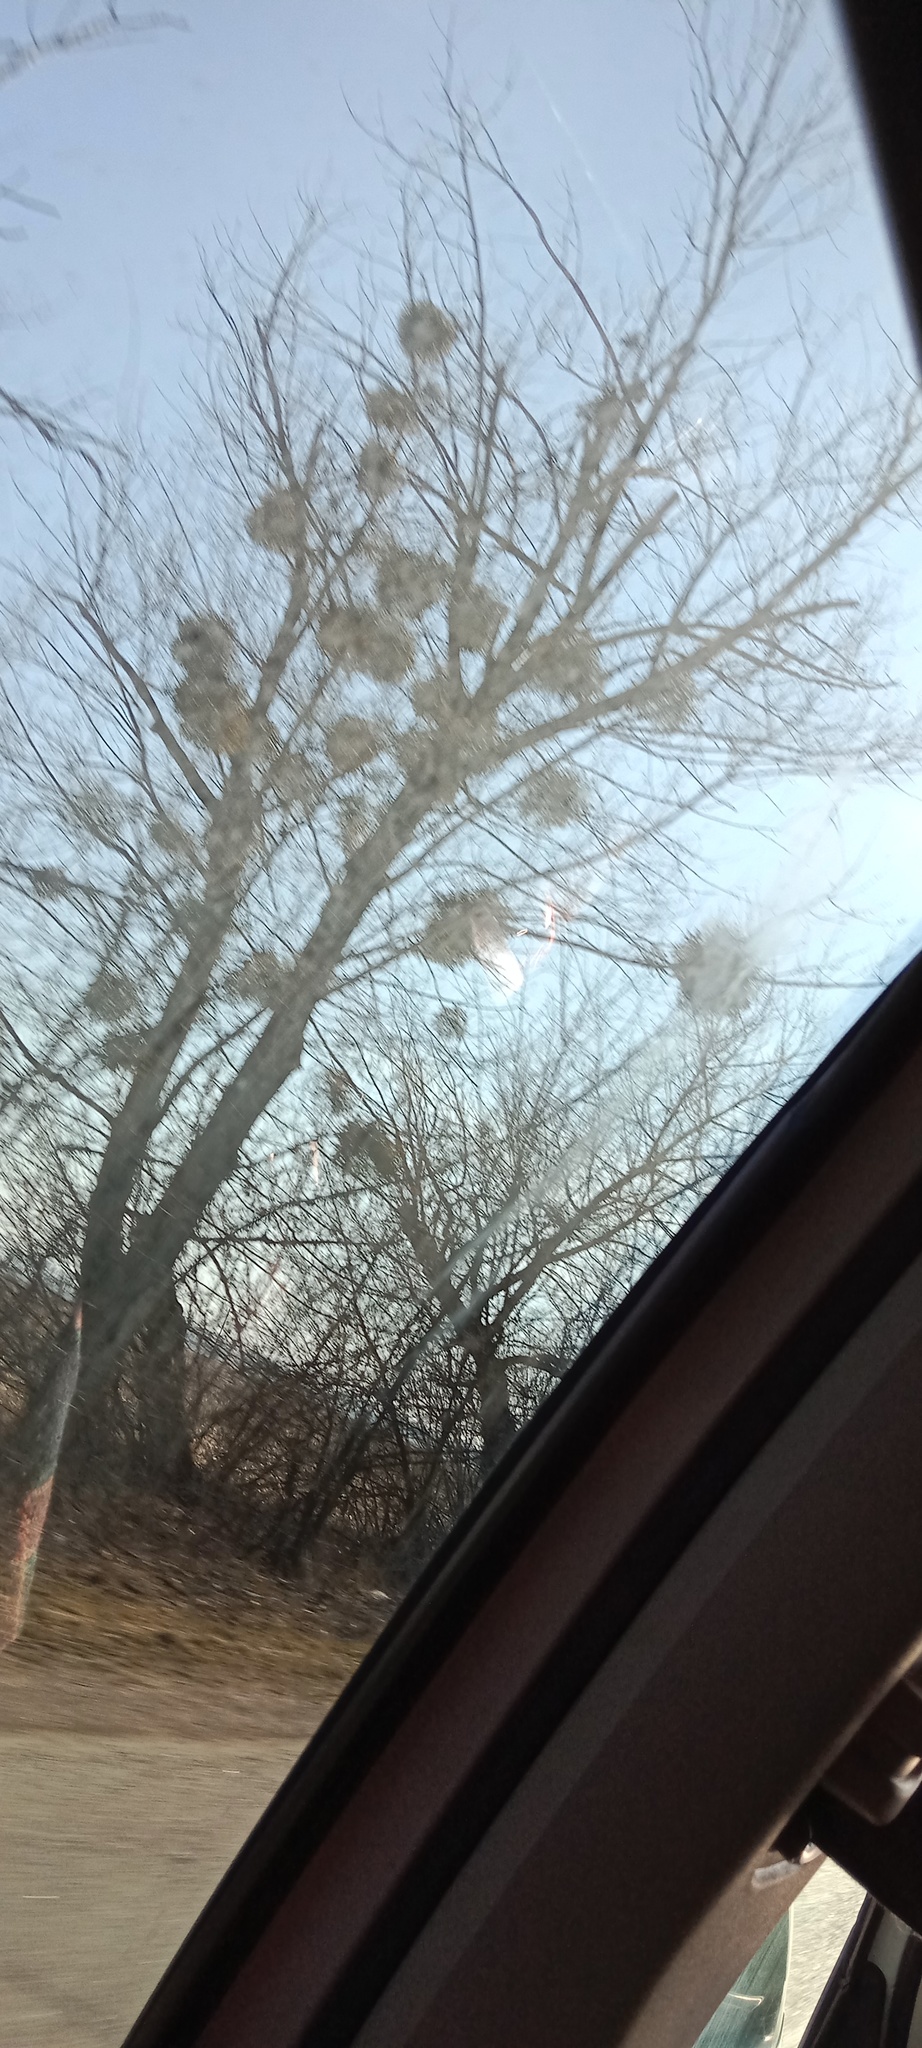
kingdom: Plantae
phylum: Tracheophyta
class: Magnoliopsida
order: Santalales
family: Viscaceae
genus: Viscum
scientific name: Viscum album
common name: Mistletoe
